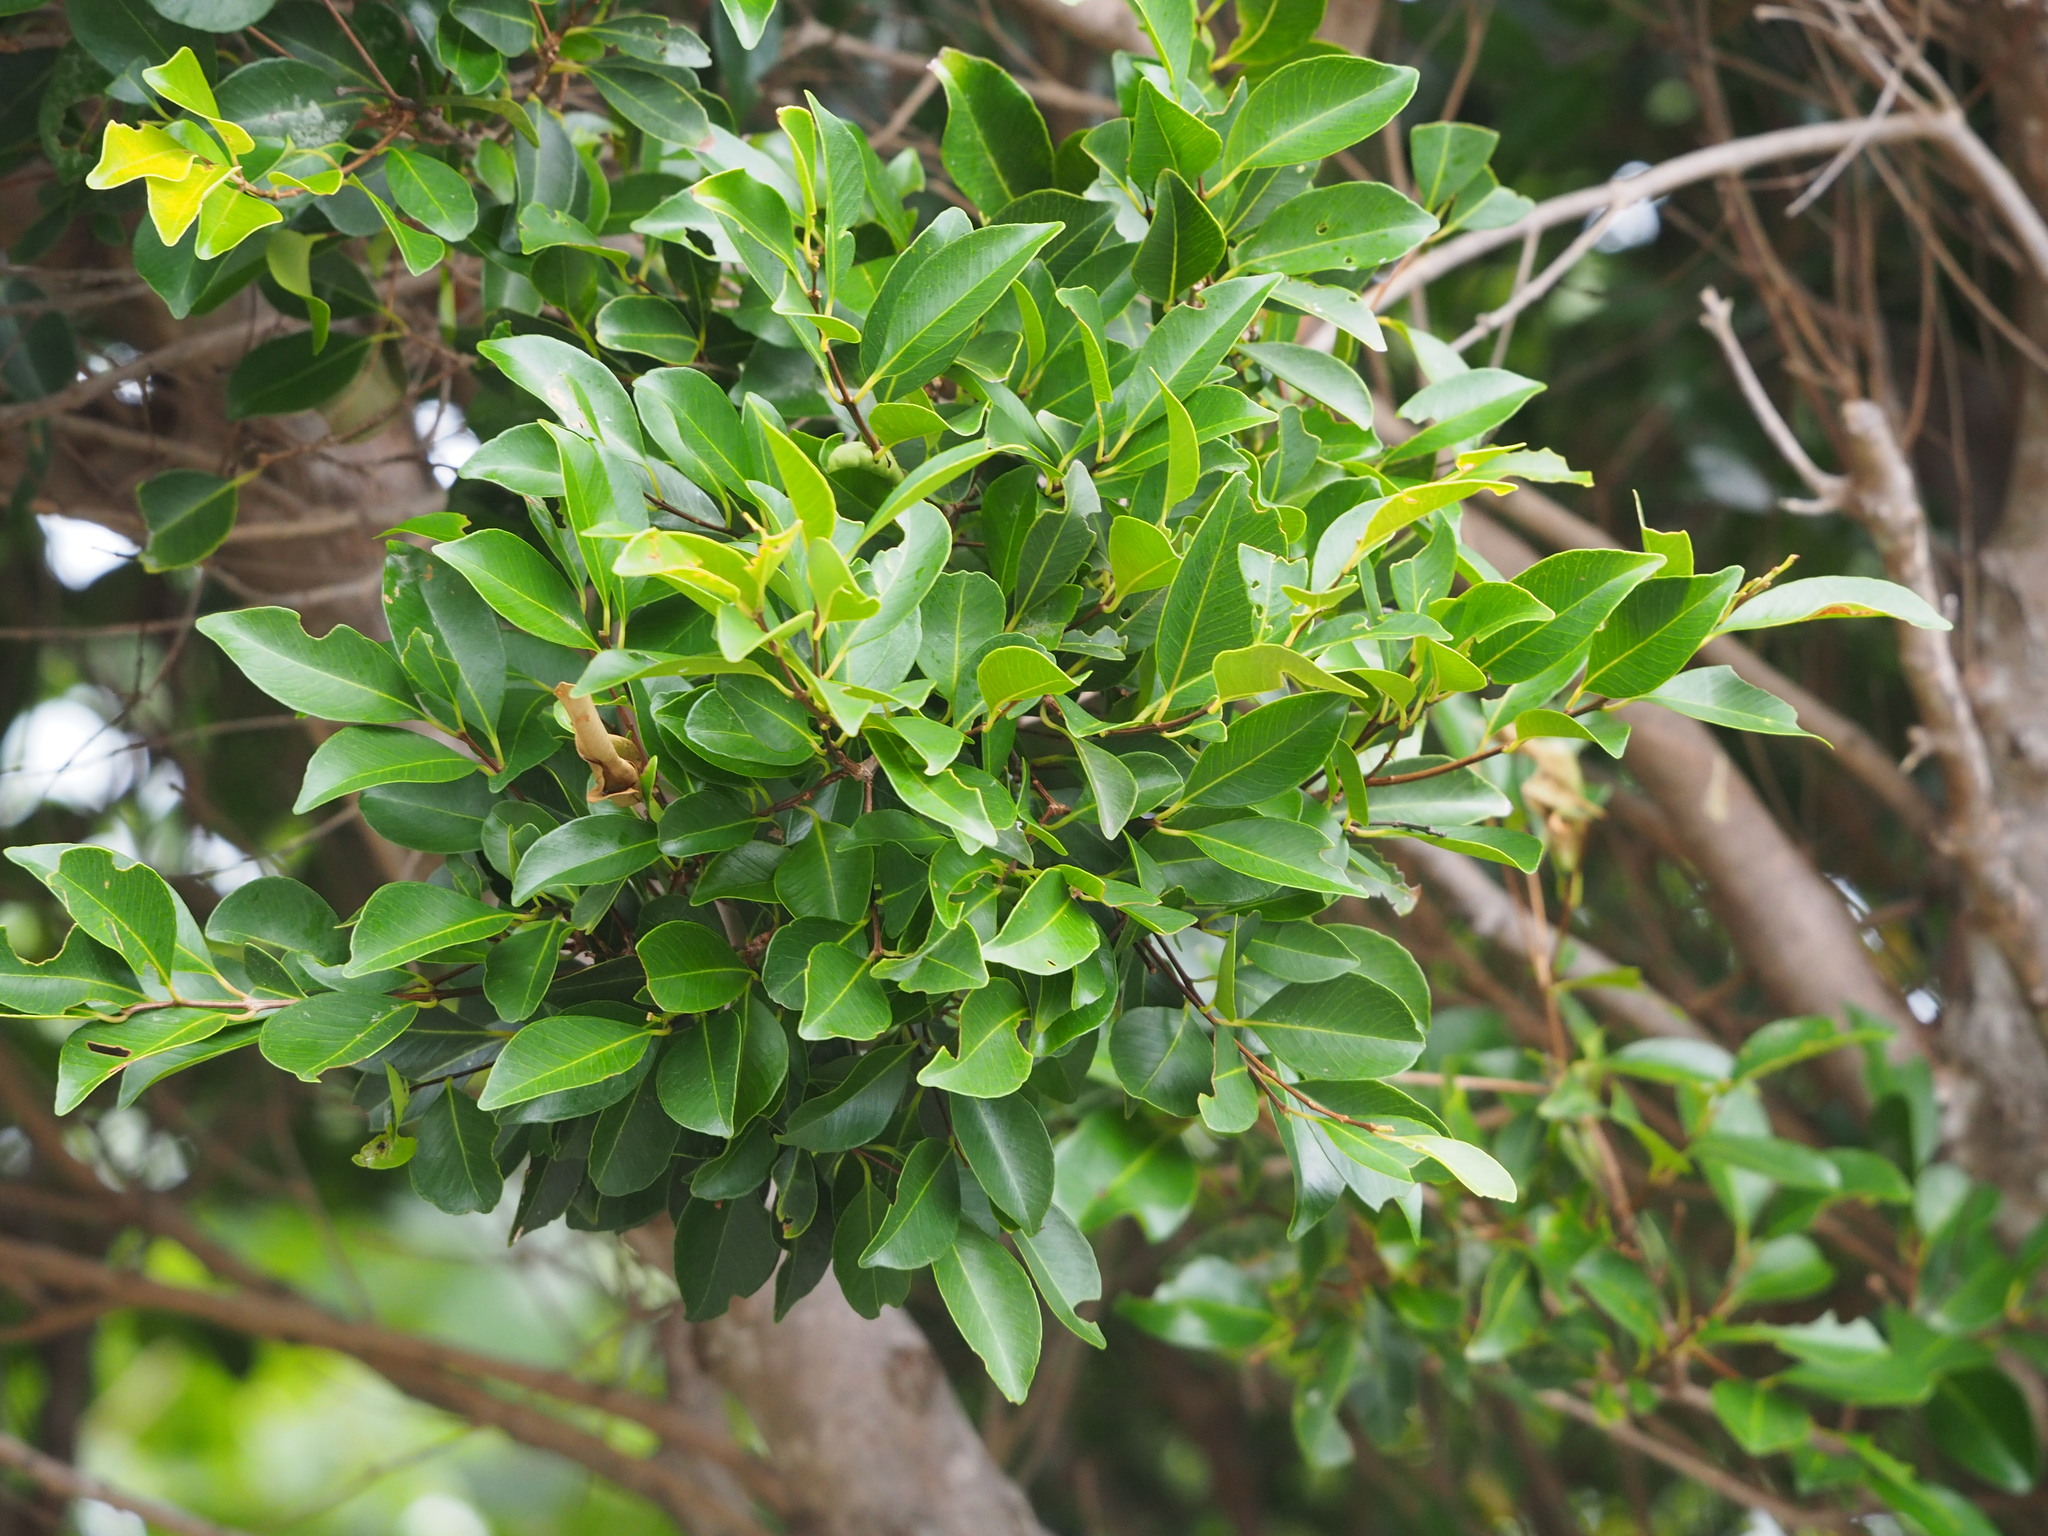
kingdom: Plantae
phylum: Tracheophyta
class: Magnoliopsida
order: Myrtales
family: Myrtaceae
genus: Syzygium
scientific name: Syzygium formosanum
